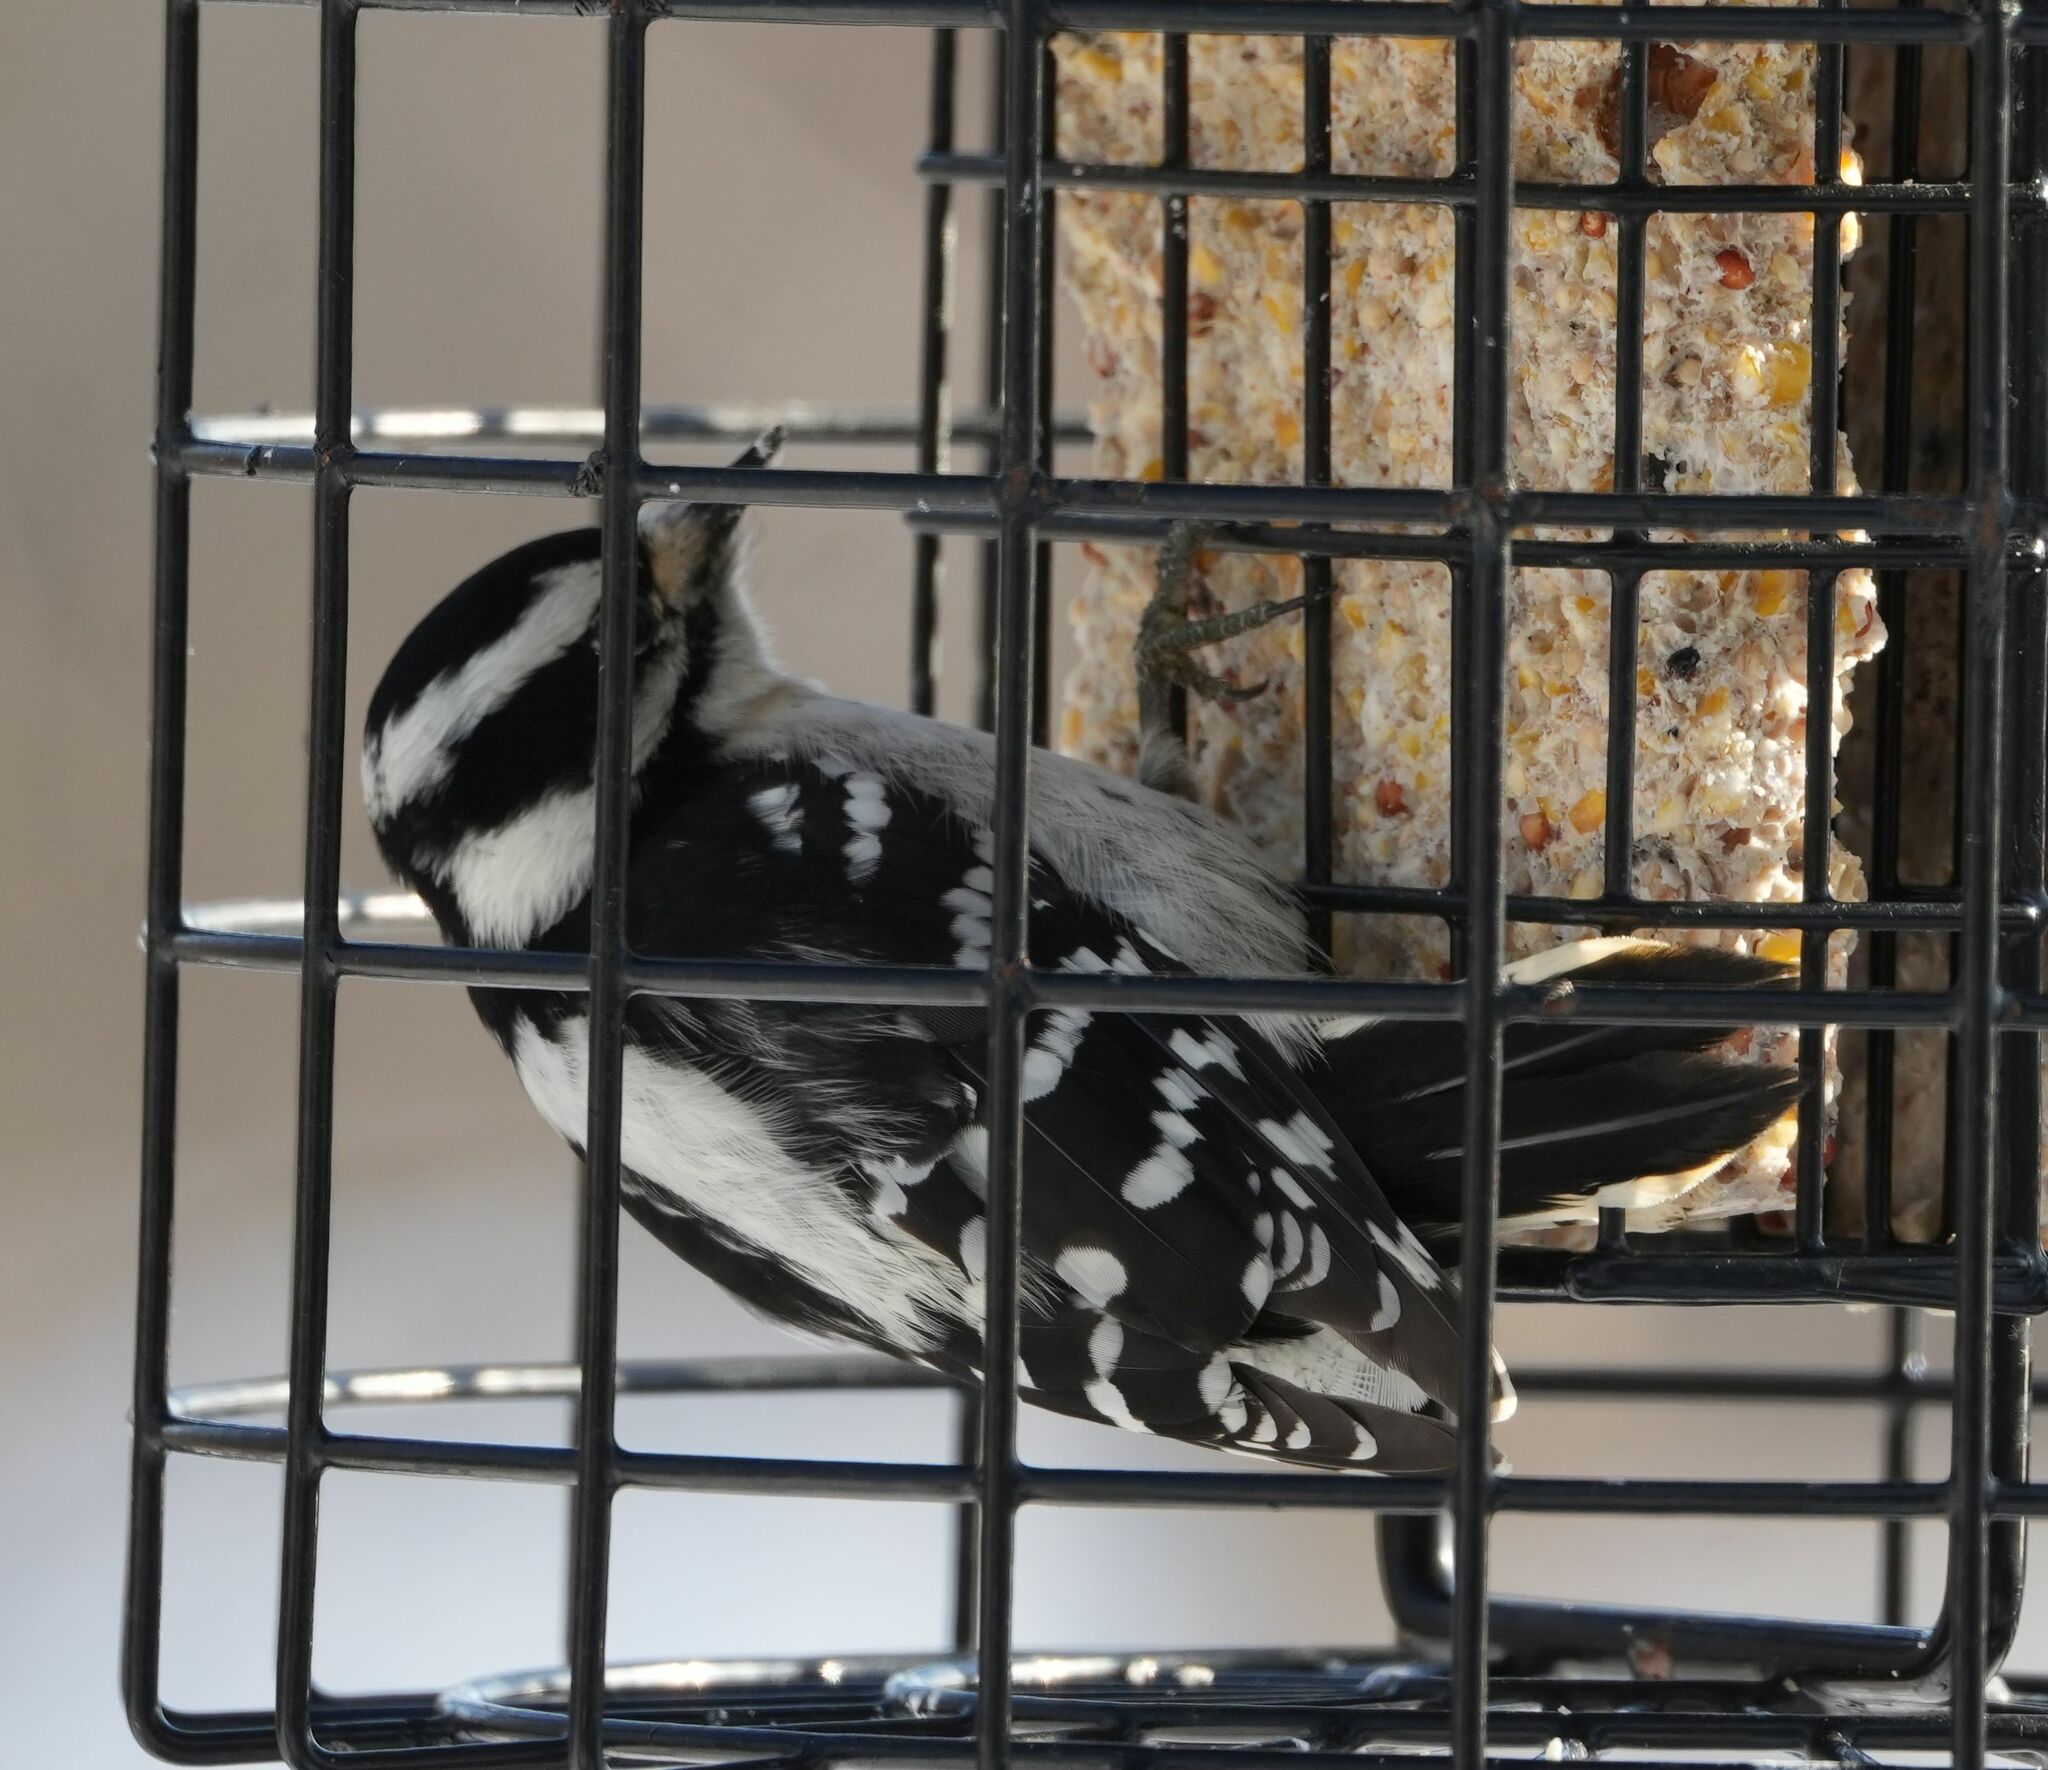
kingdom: Animalia
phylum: Chordata
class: Aves
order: Piciformes
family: Picidae
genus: Dryobates
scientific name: Dryobates pubescens
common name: Downy woodpecker
